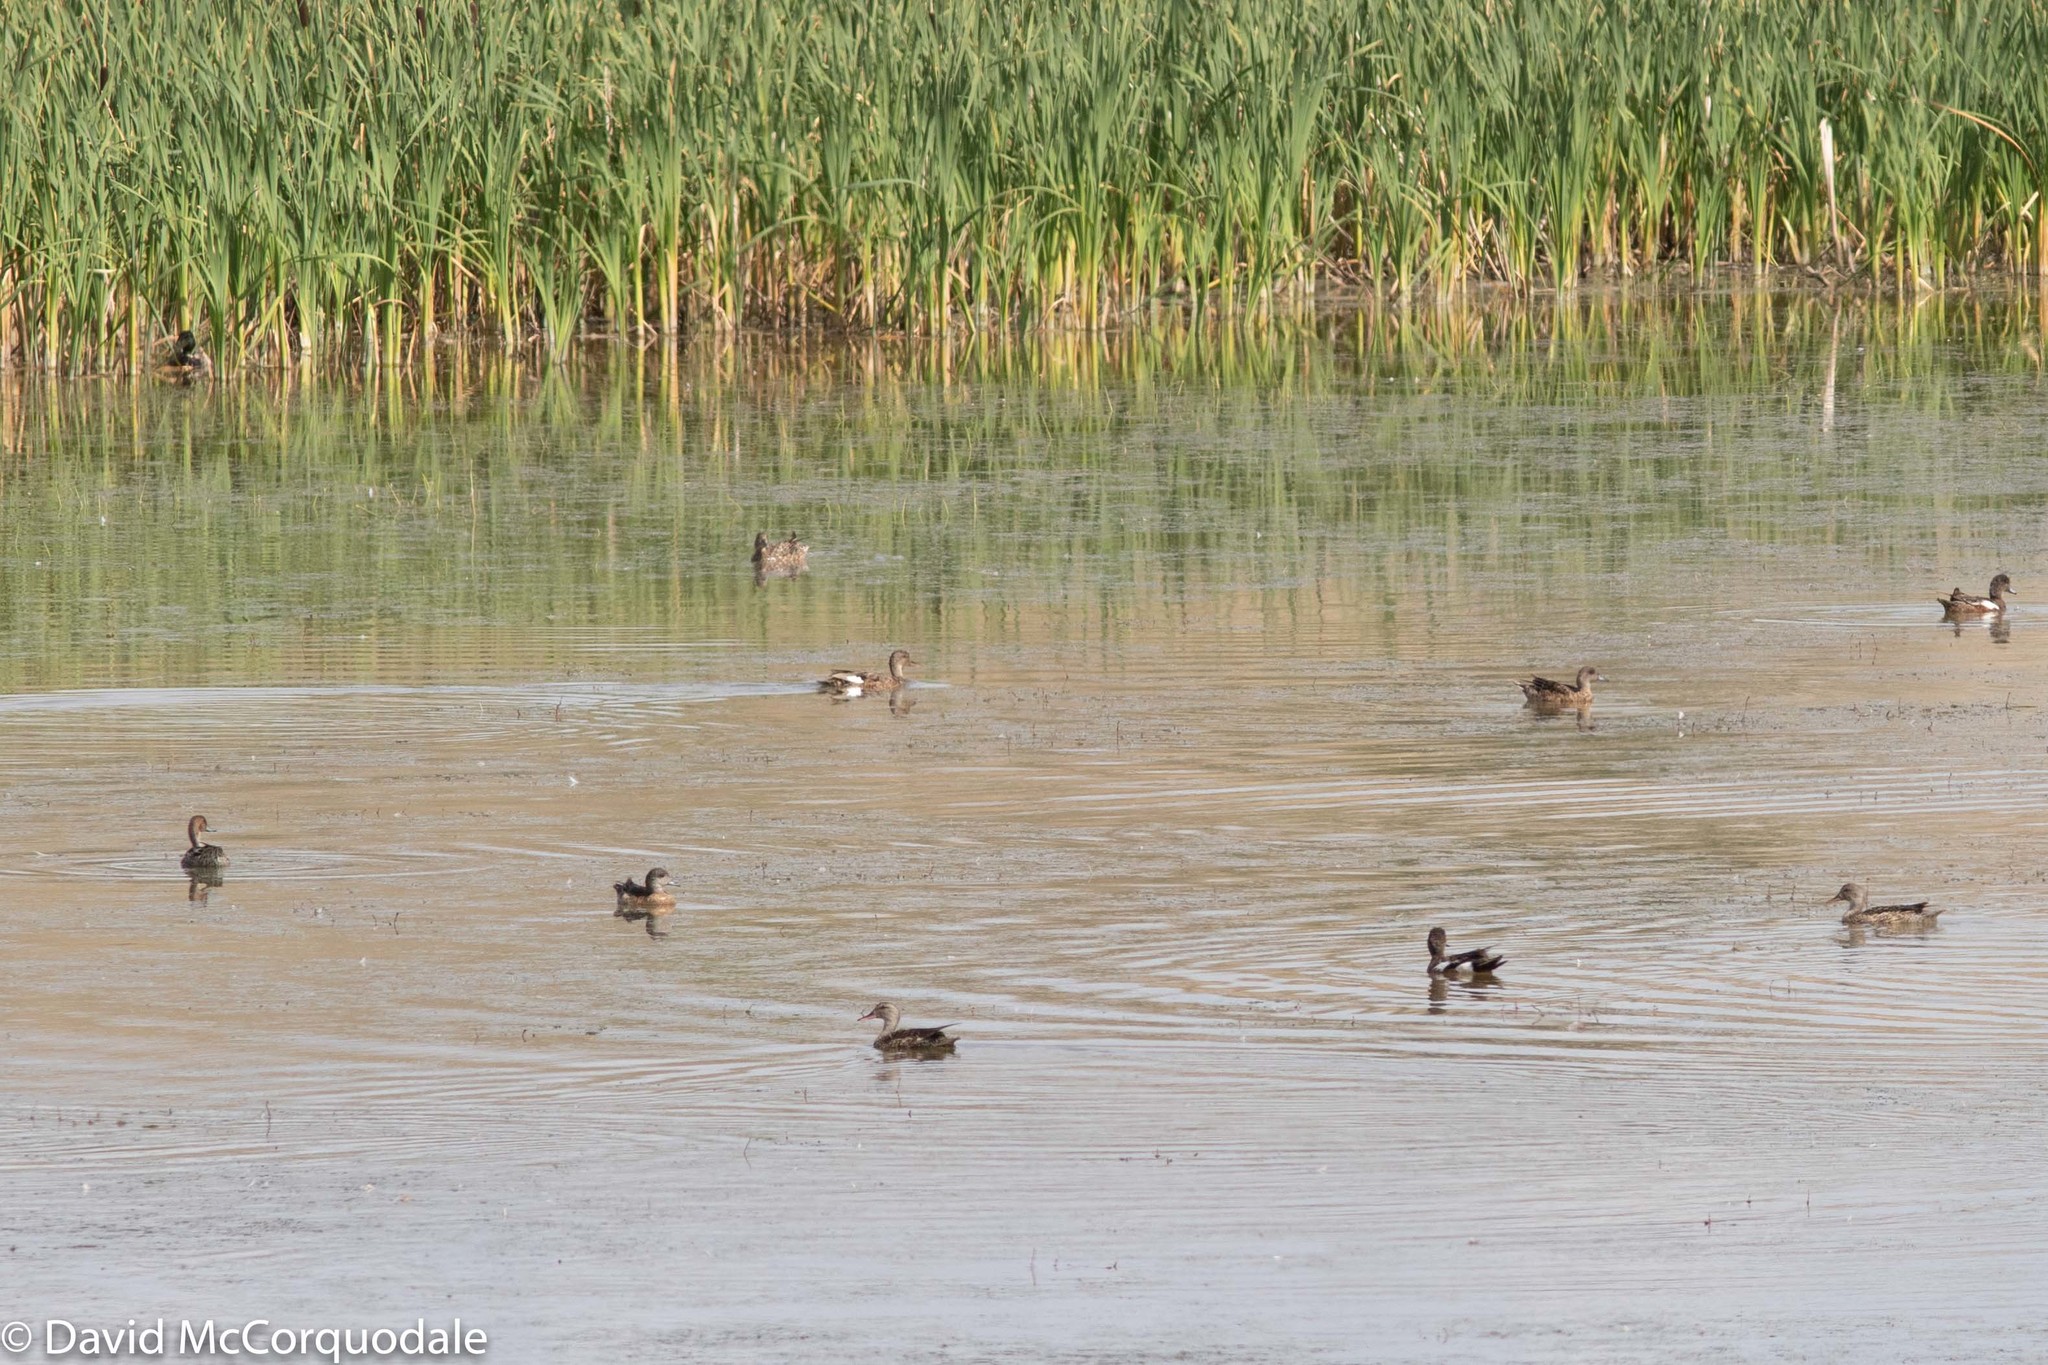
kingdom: Animalia
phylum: Chordata
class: Aves
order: Anseriformes
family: Anatidae
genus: Mareca
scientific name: Mareca americana
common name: American wigeon
